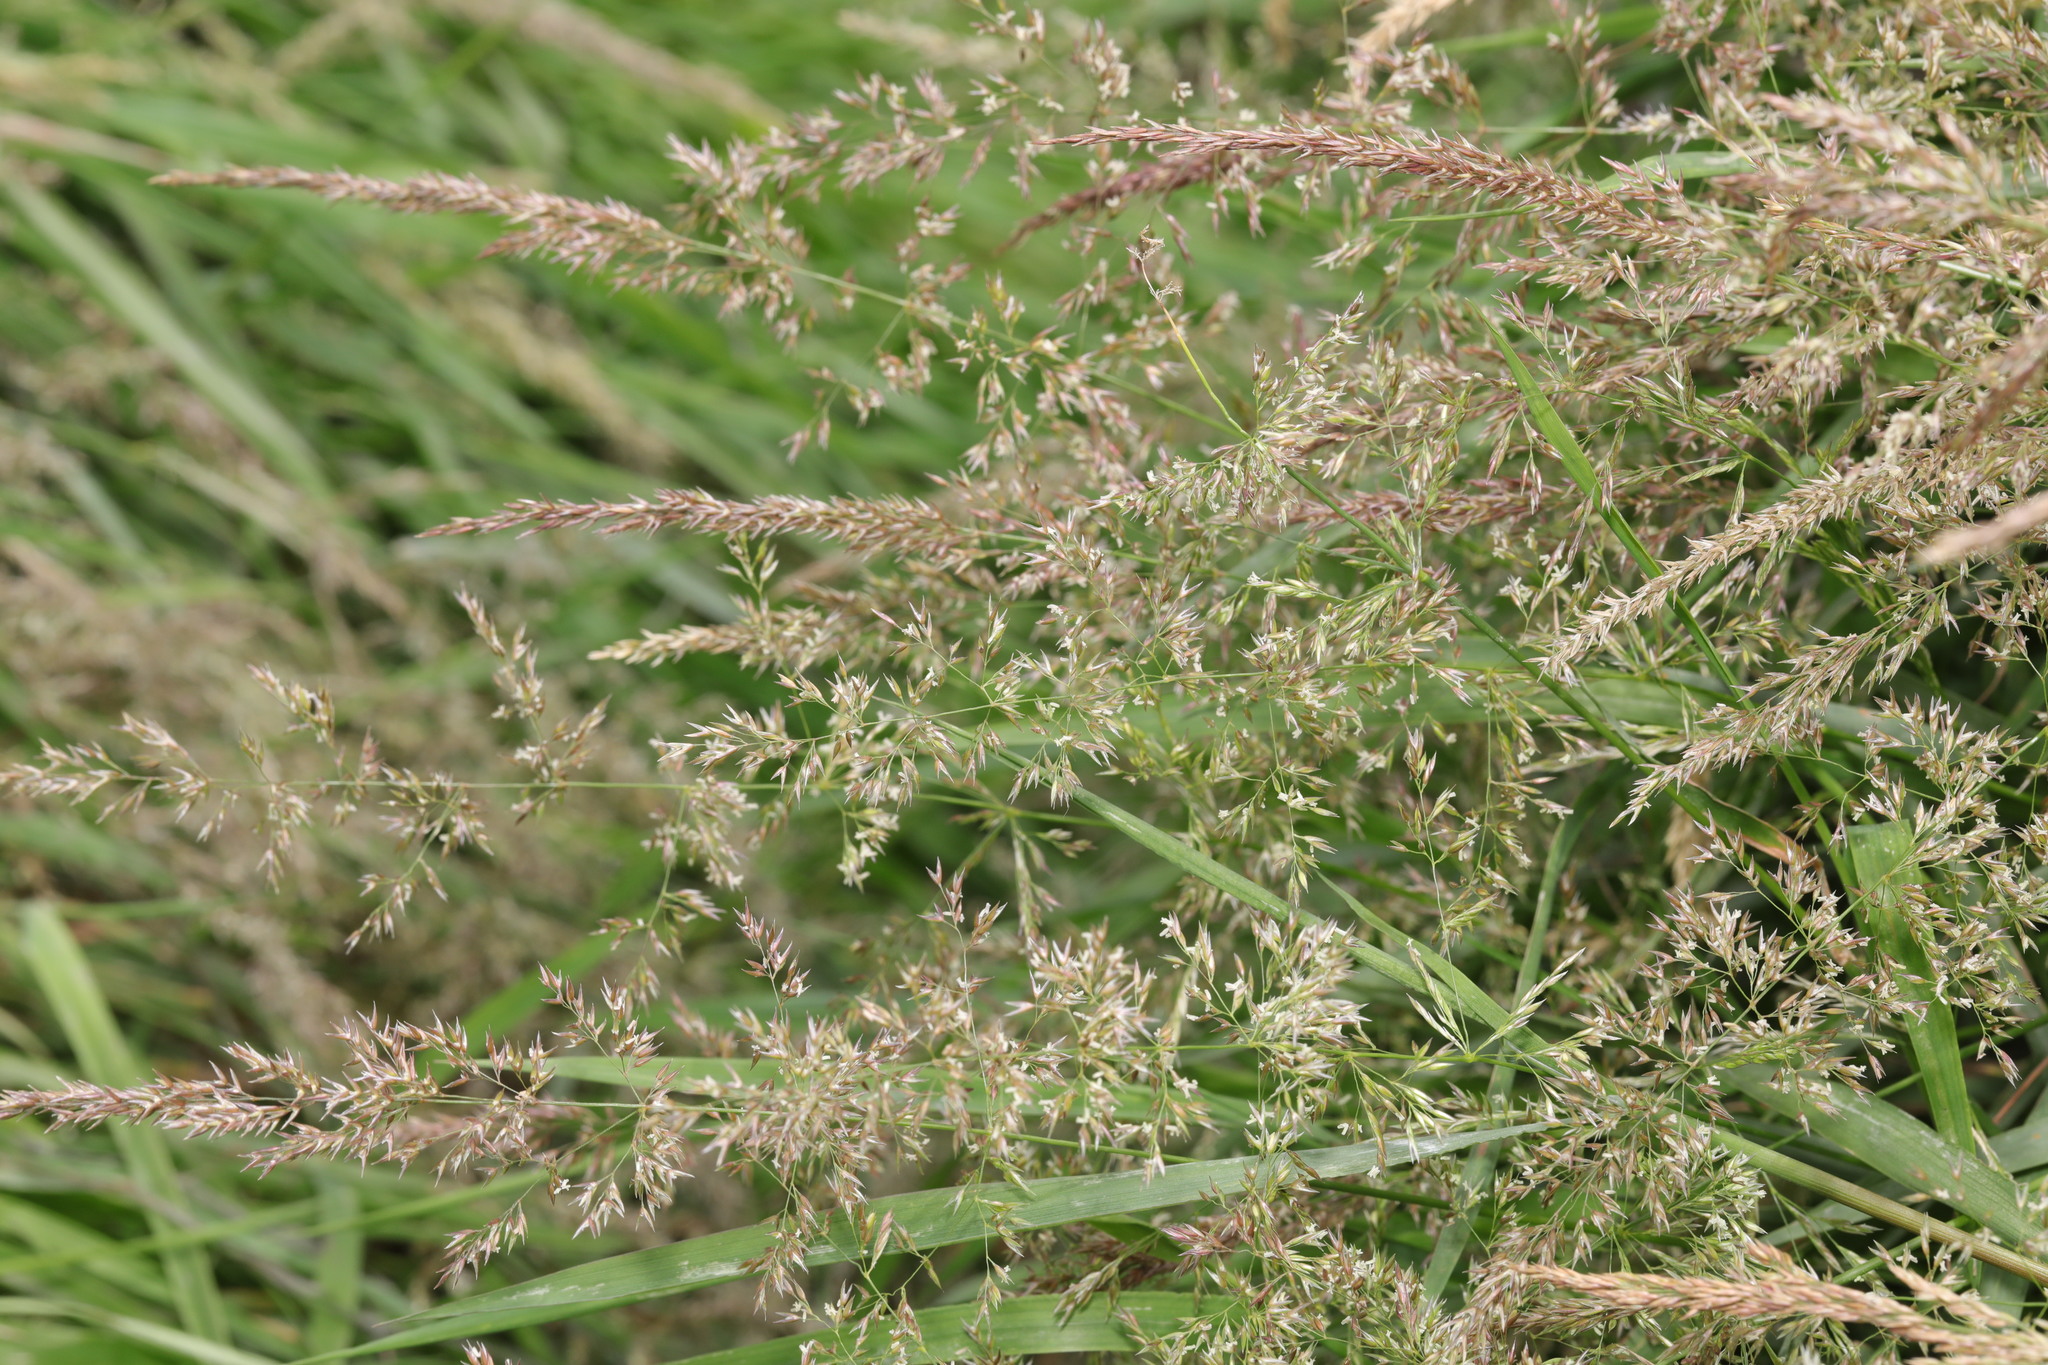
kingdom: Plantae
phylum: Tracheophyta
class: Liliopsida
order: Poales
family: Poaceae
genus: Agrostis
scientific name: Agrostis stolonifera
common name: Creeping bentgrass
